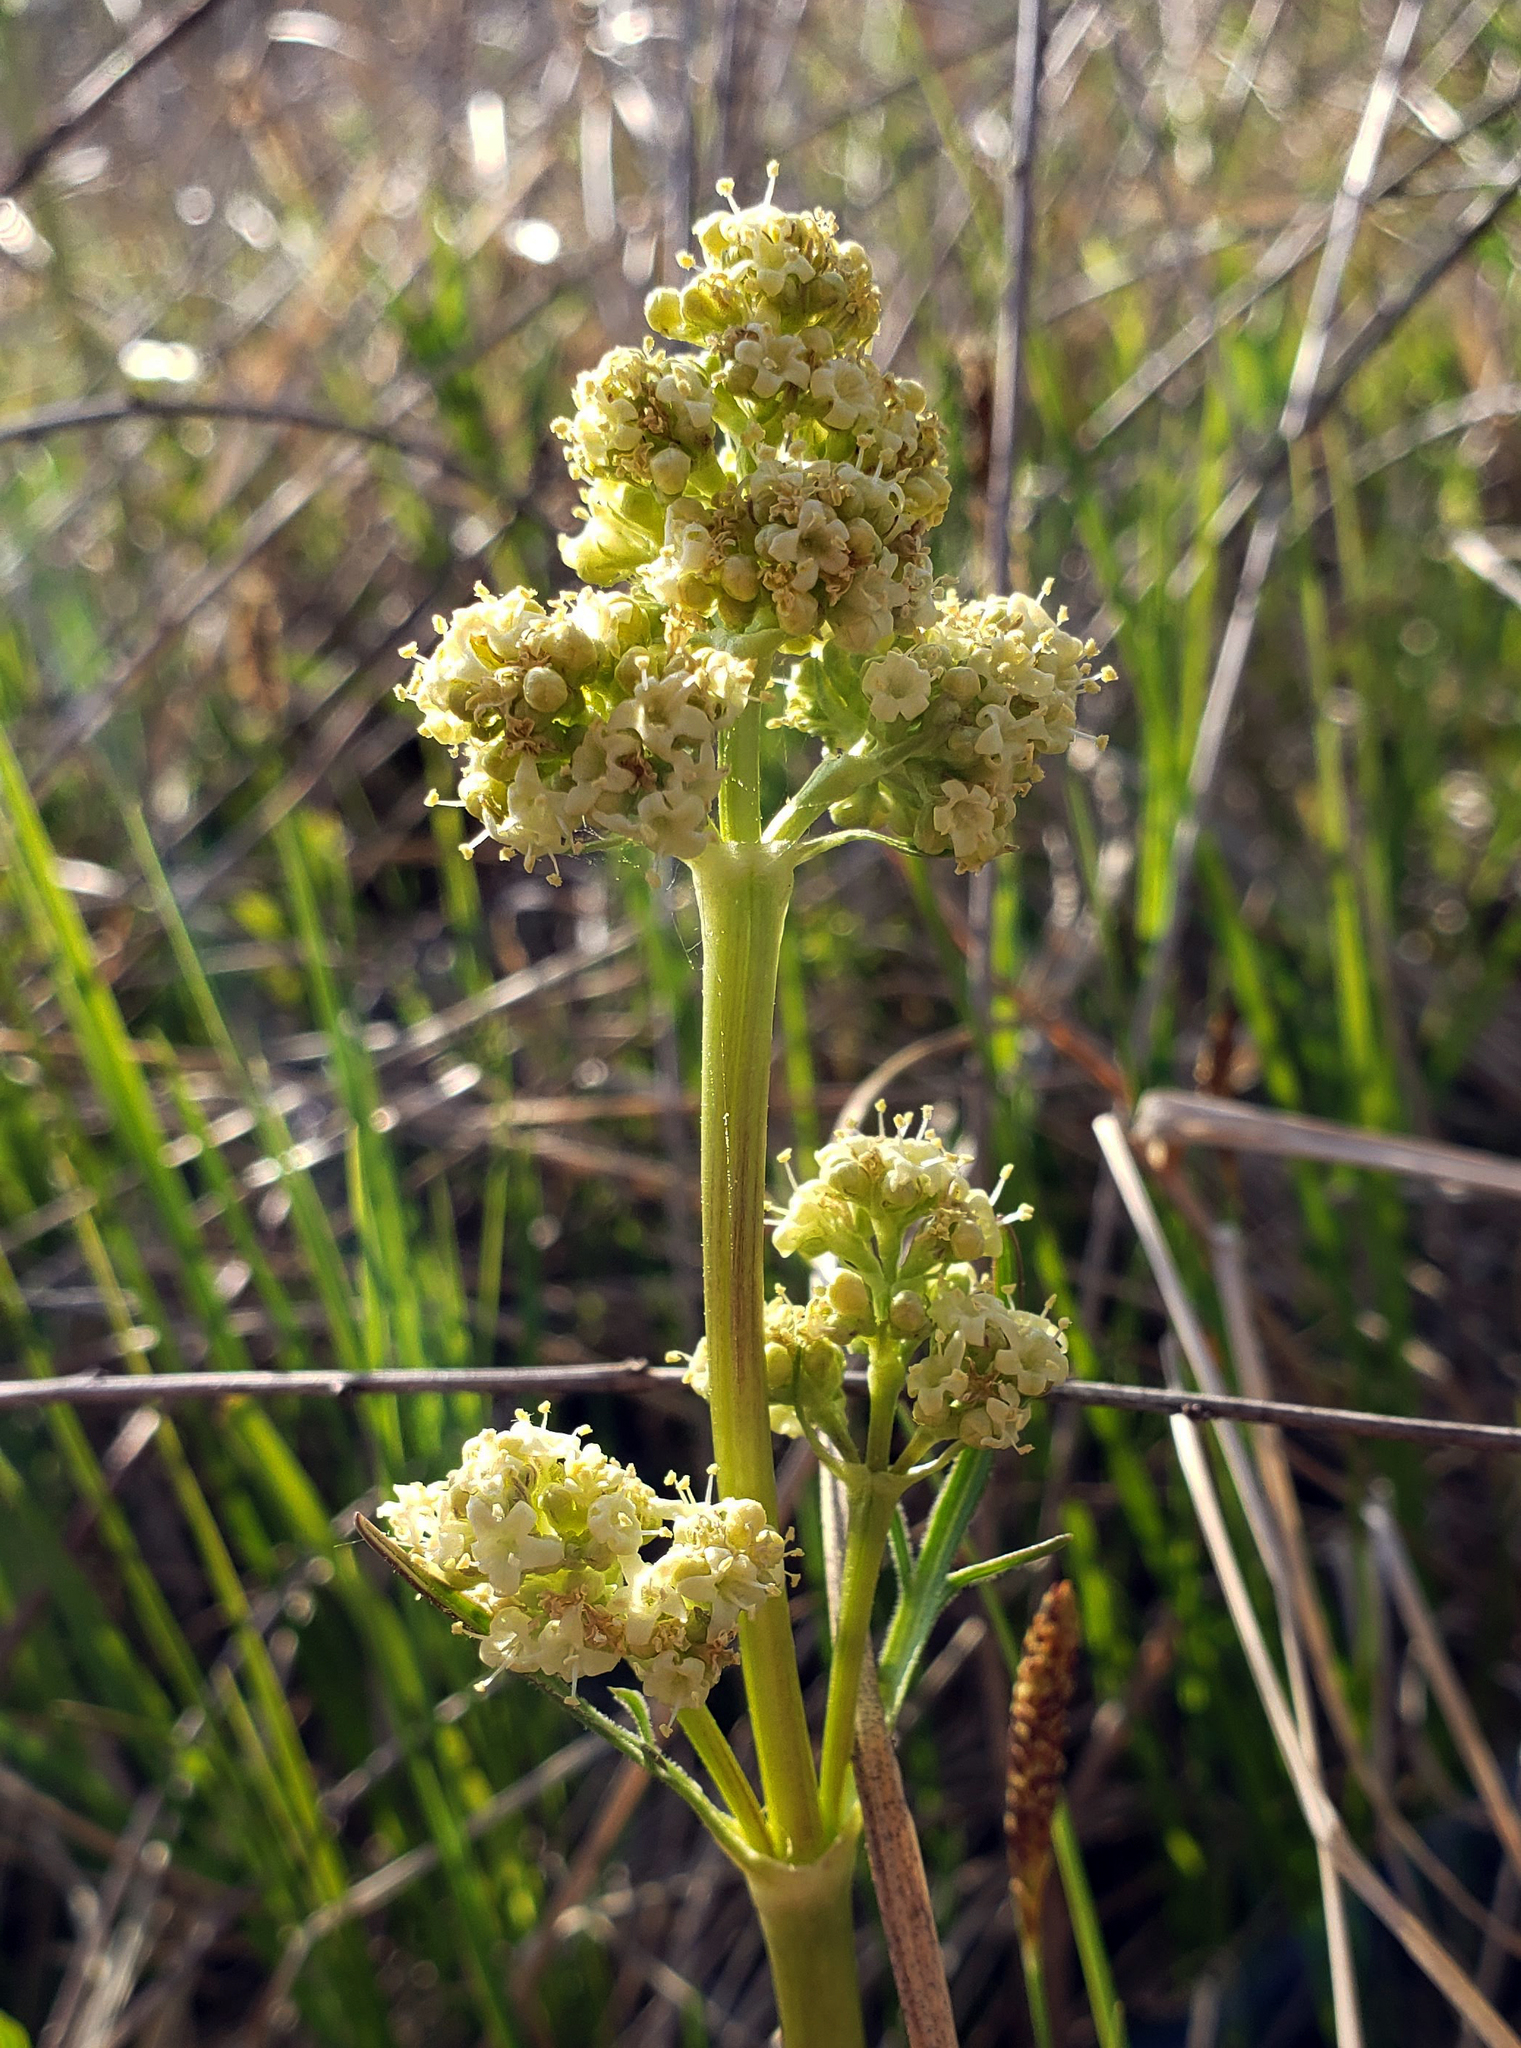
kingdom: Plantae
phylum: Tracheophyta
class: Magnoliopsida
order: Dipsacales
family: Caprifoliaceae
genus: Valeriana
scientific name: Valeriana edulis
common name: Taproot valerian
